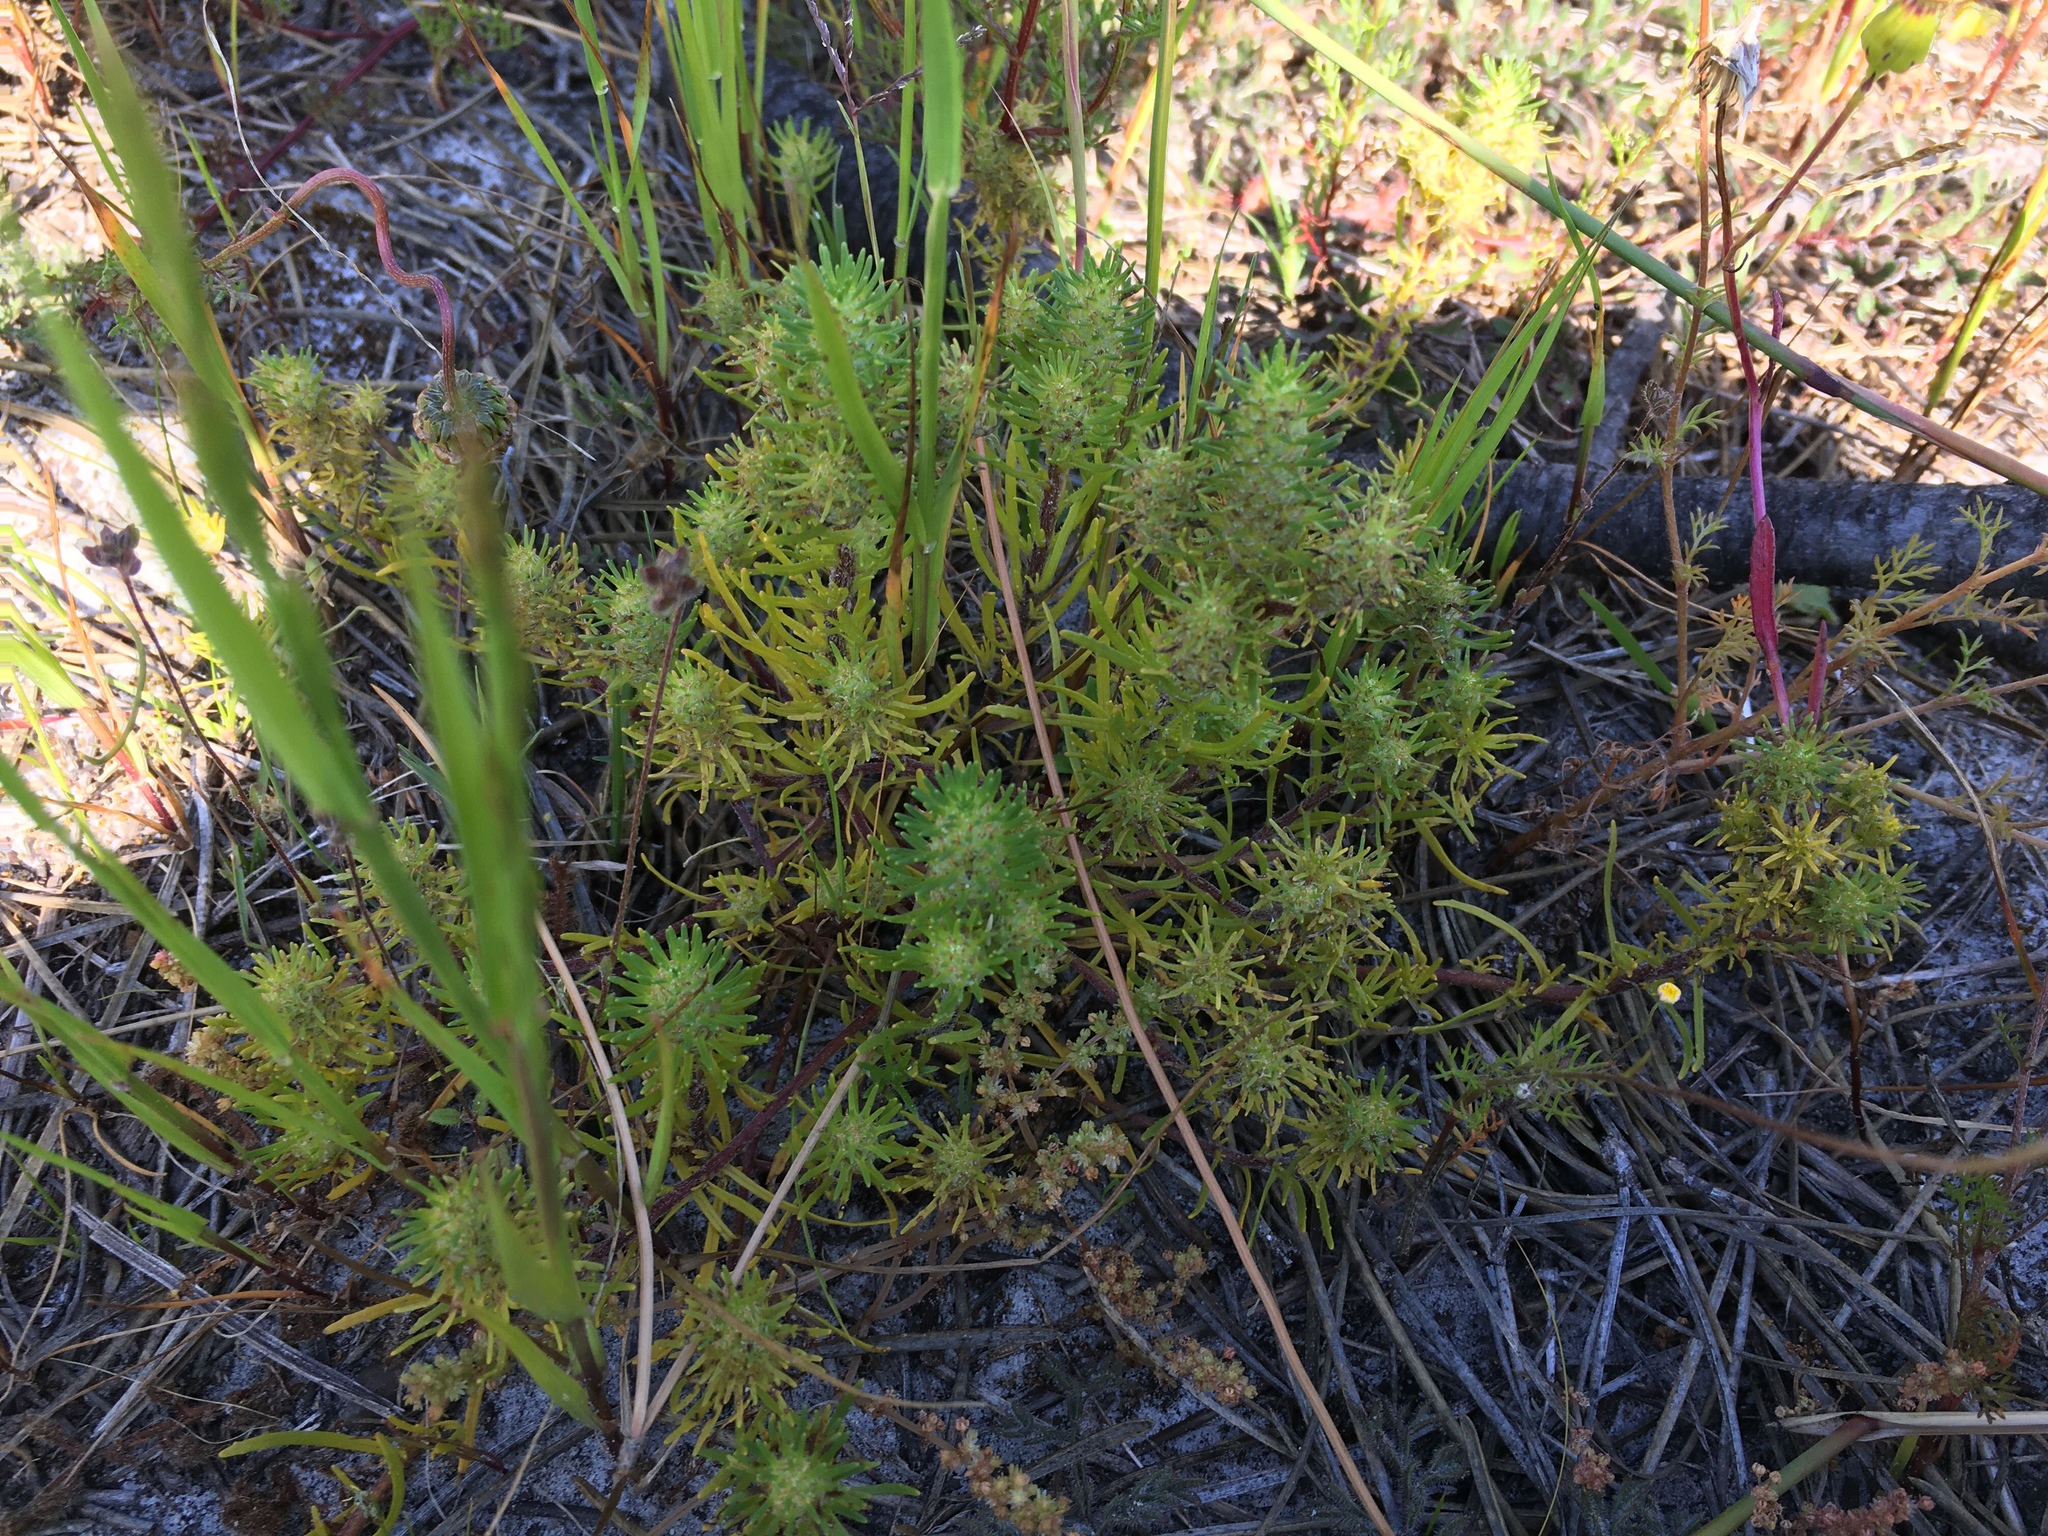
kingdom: Plantae
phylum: Tracheophyta
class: Magnoliopsida
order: Lamiales
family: Scrophulariaceae
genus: Dischisma
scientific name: Dischisma capitatum
